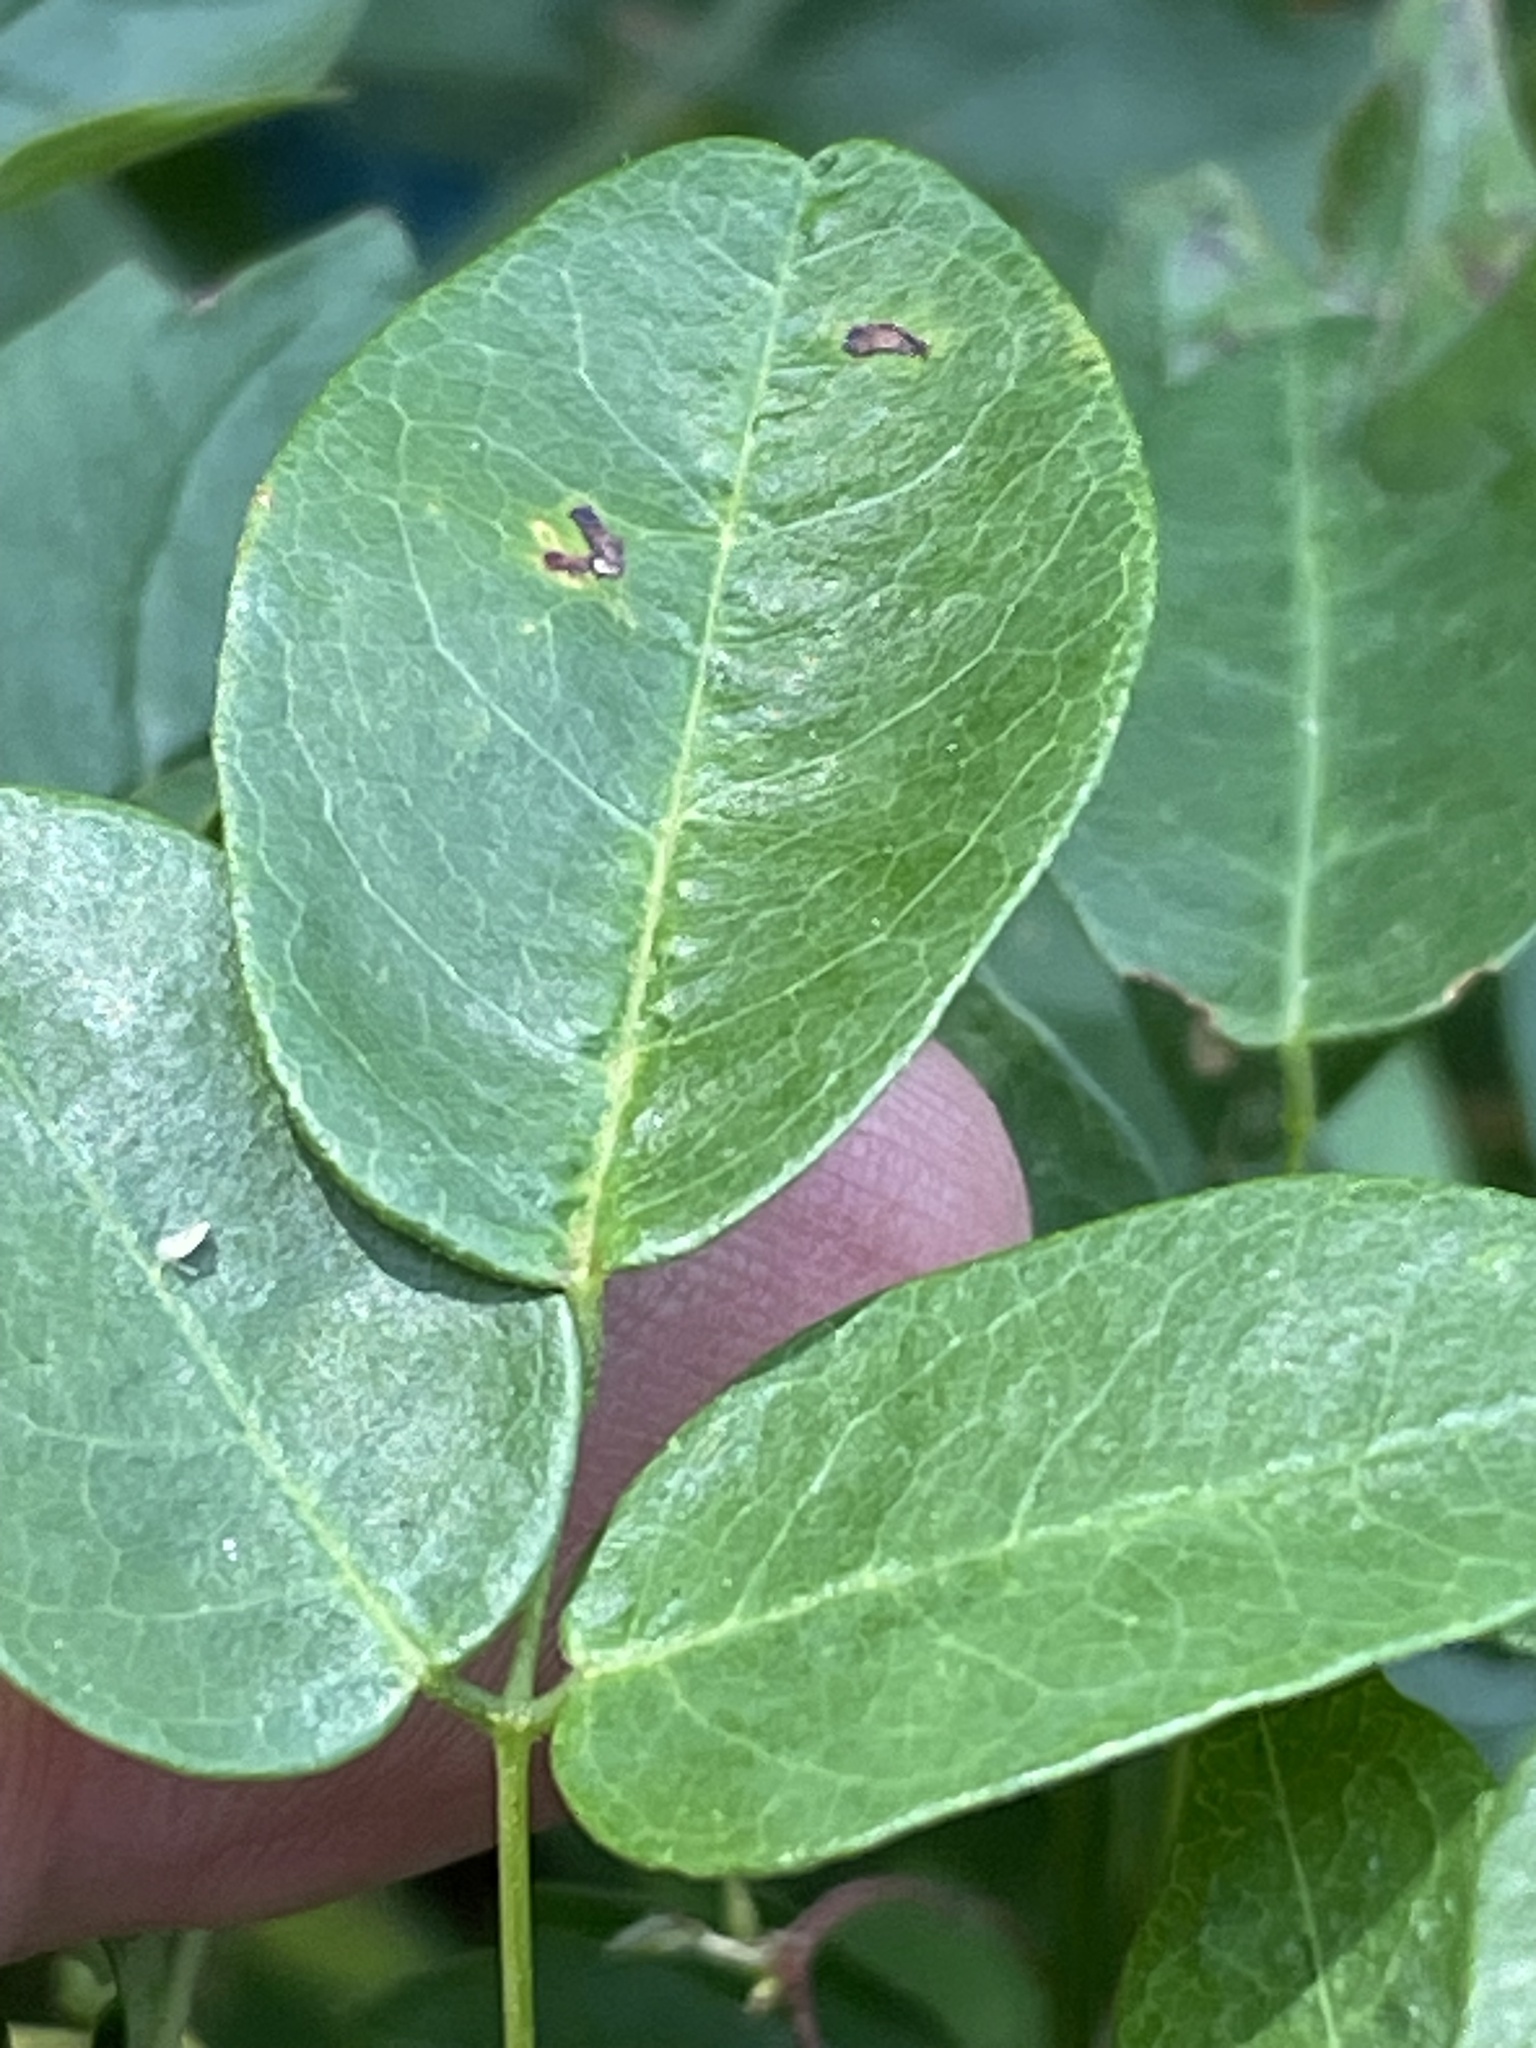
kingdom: Plantae
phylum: Tracheophyta
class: Magnoliopsida
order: Fabales
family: Fabaceae
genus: Galactia
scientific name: Galactia regularis
